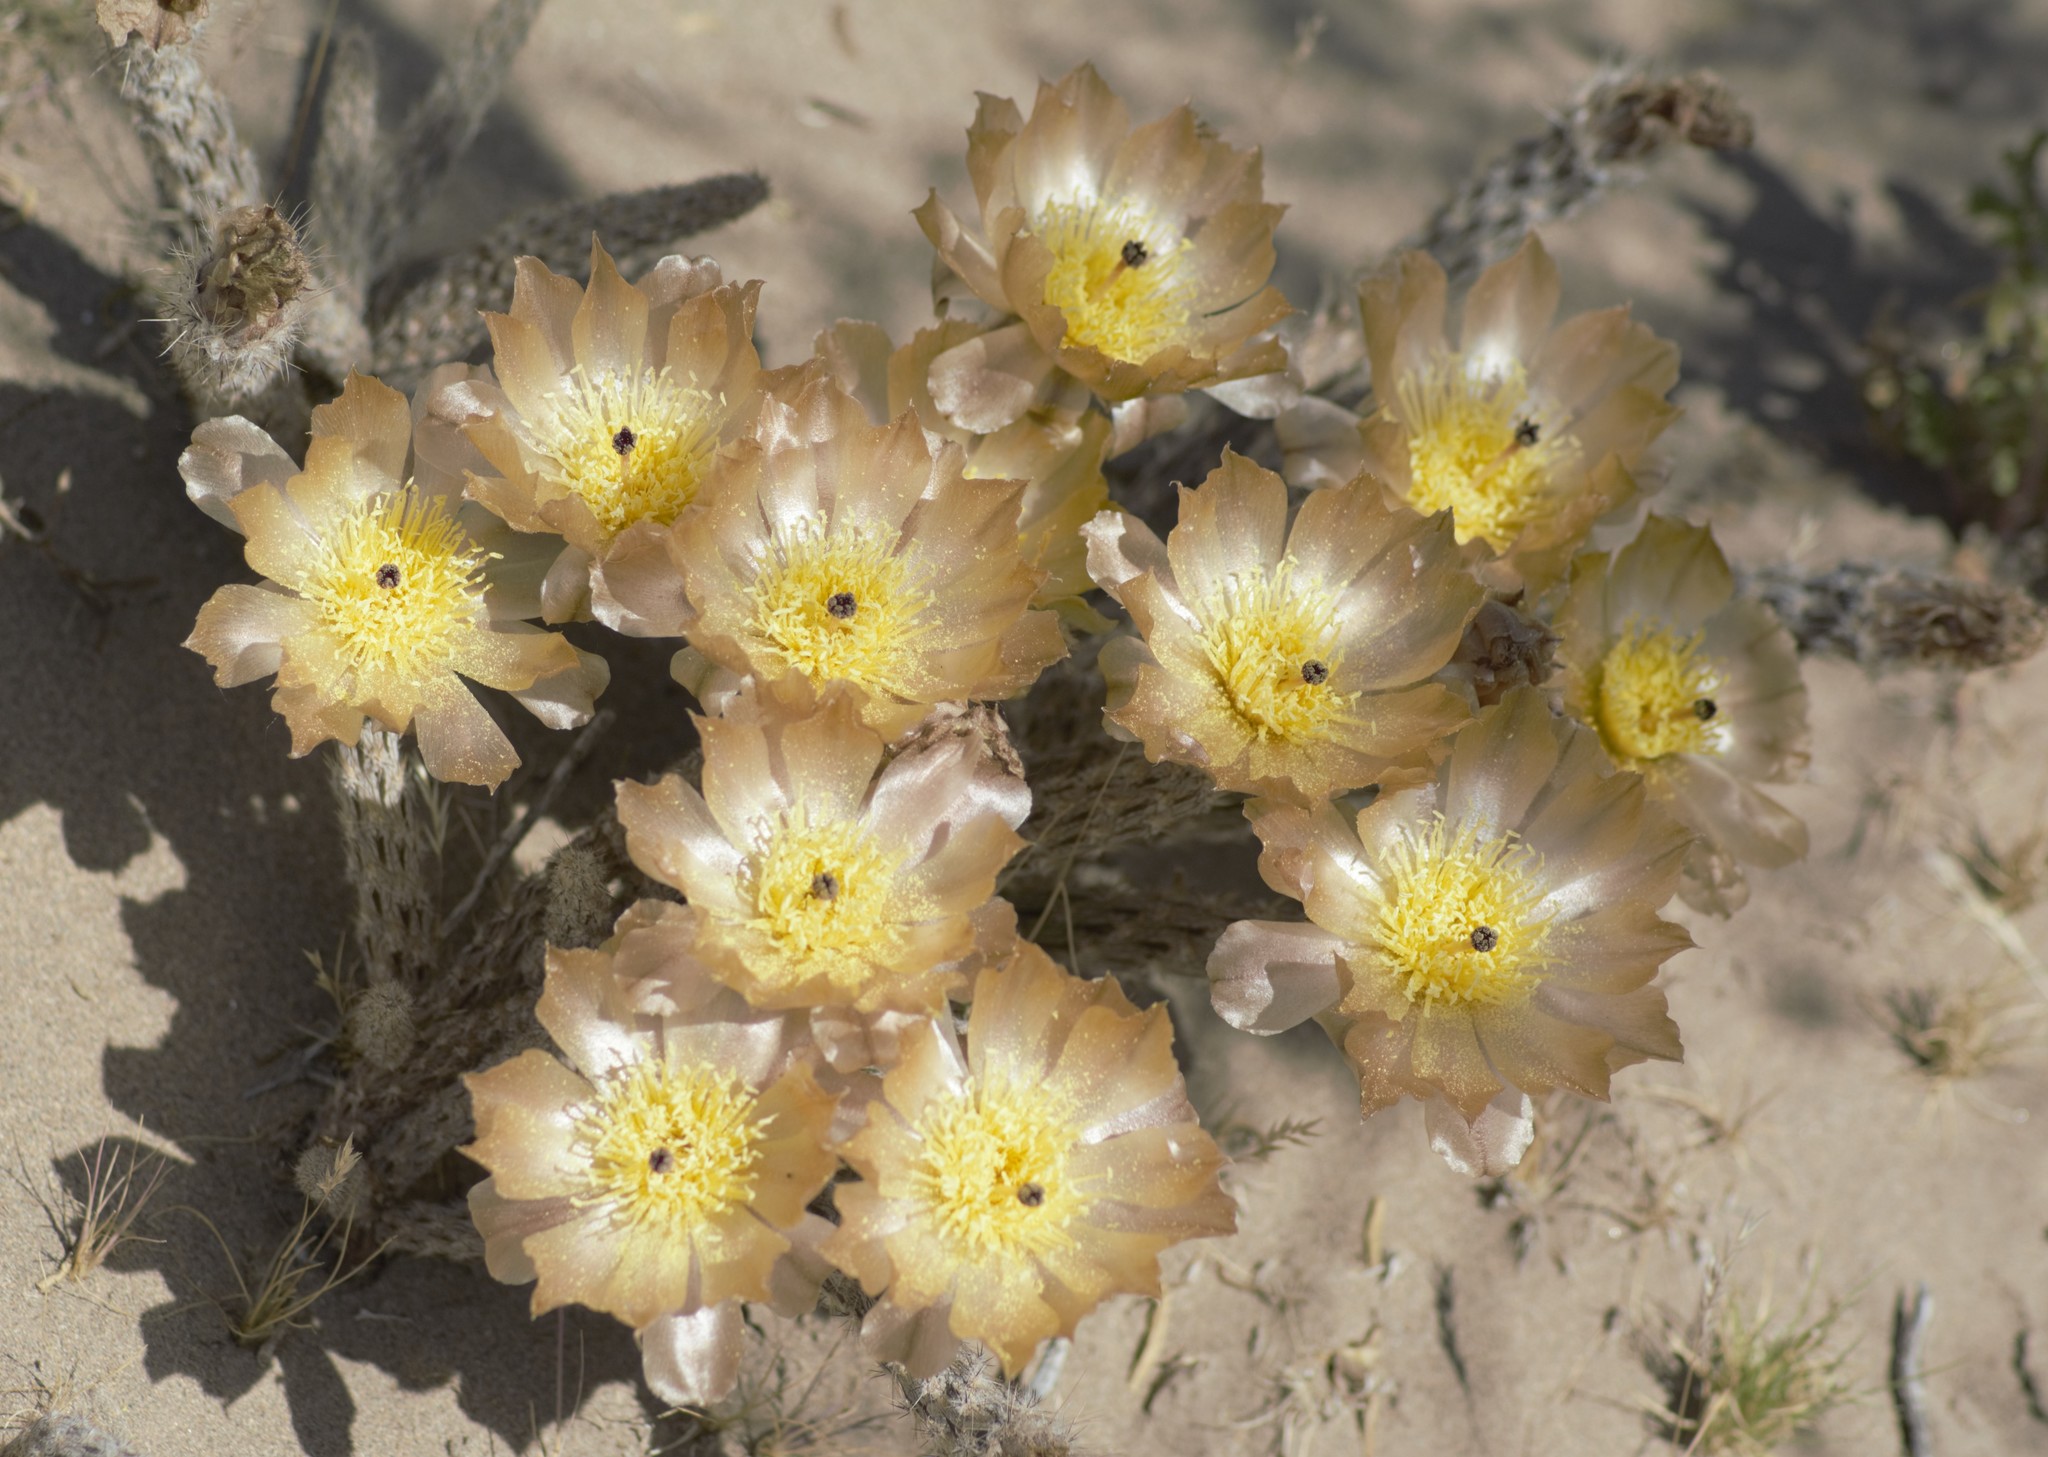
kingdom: Plantae
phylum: Tracheophyta
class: Magnoliopsida
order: Caryophyllales
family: Cactaceae
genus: Pterocactus
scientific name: Pterocactus tuberosus
